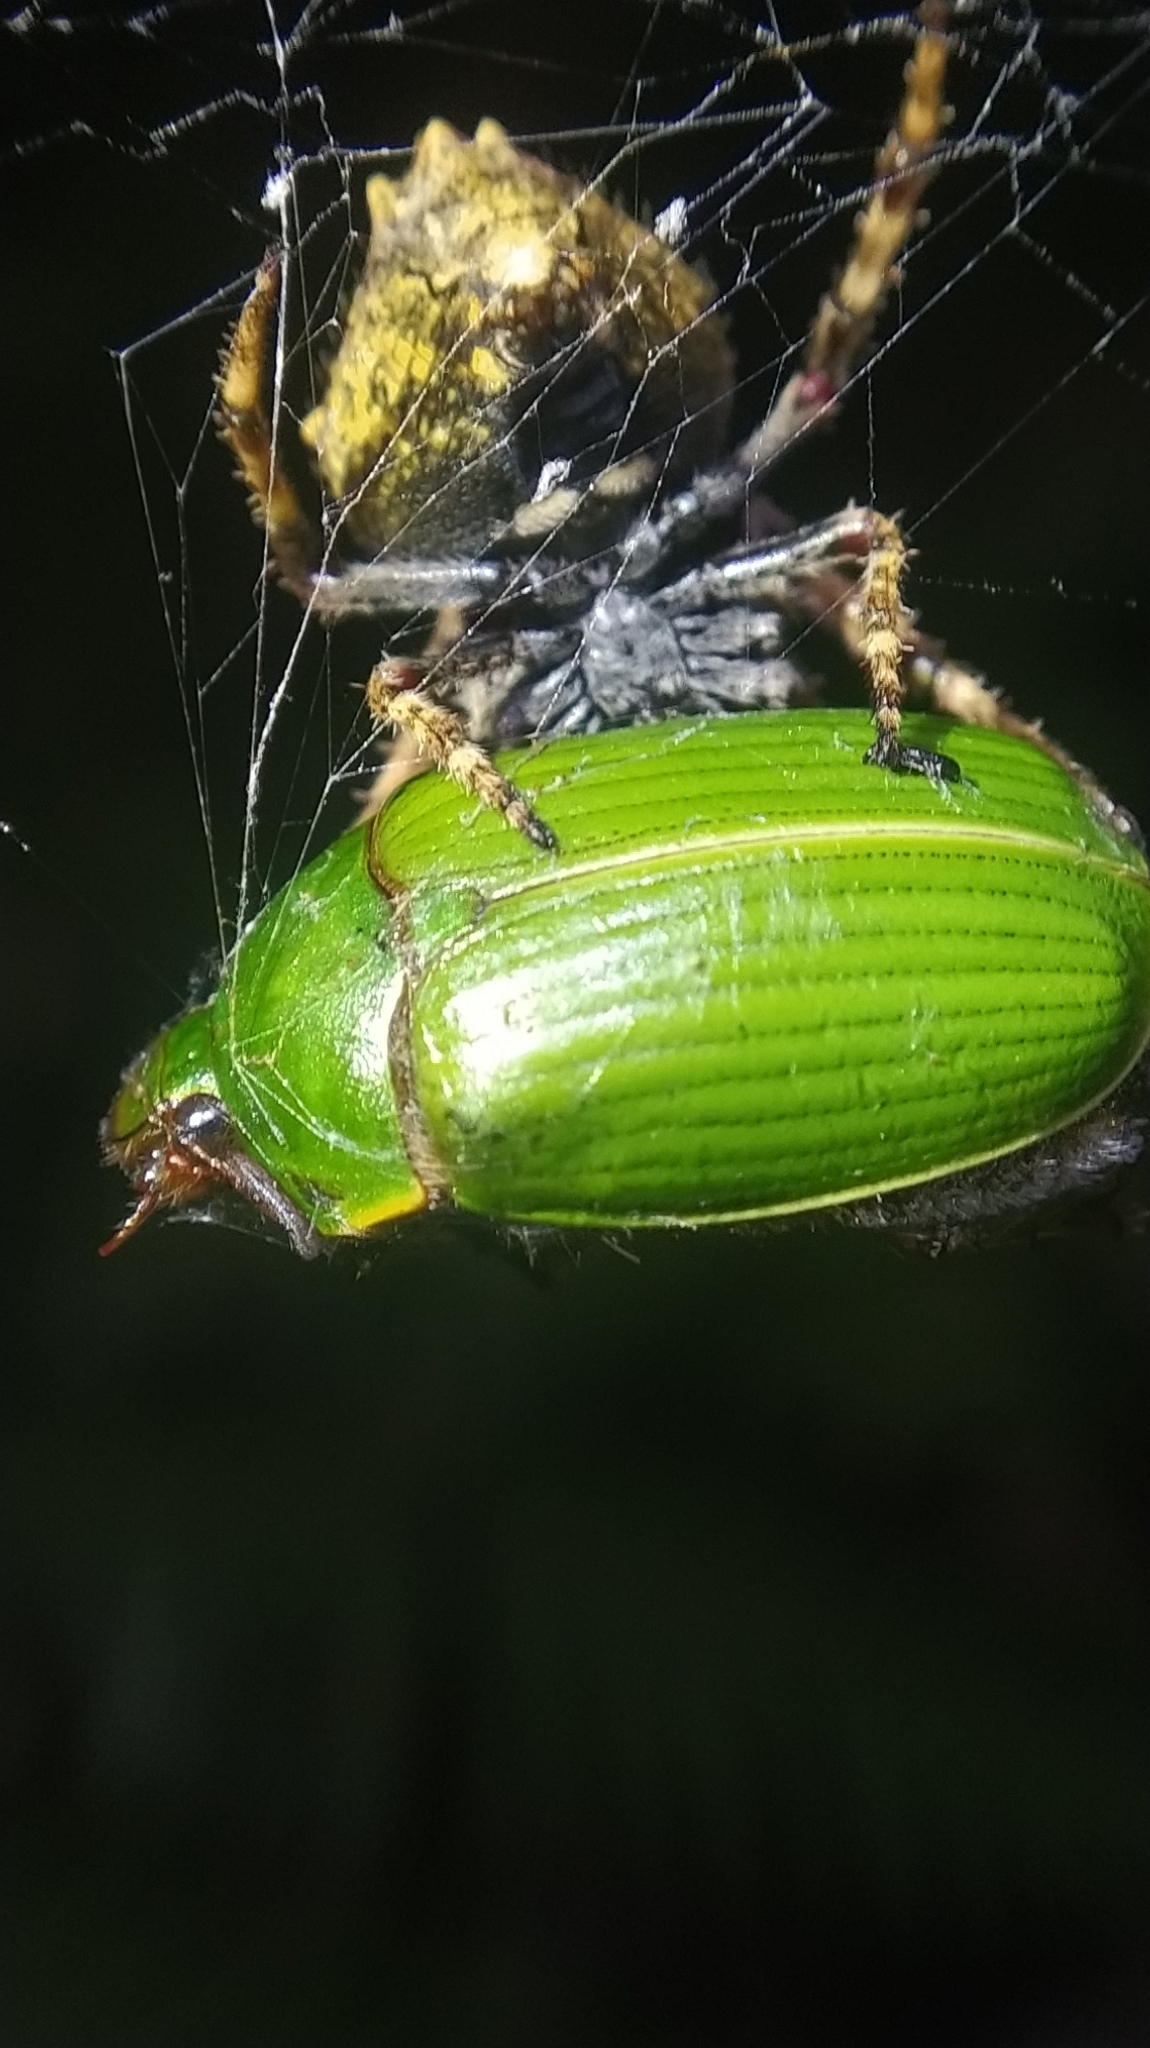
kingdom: Animalia
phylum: Arthropoda
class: Arachnida
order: Araneae
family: Araneidae
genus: Eriophora
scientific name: Eriophora pustulosa
